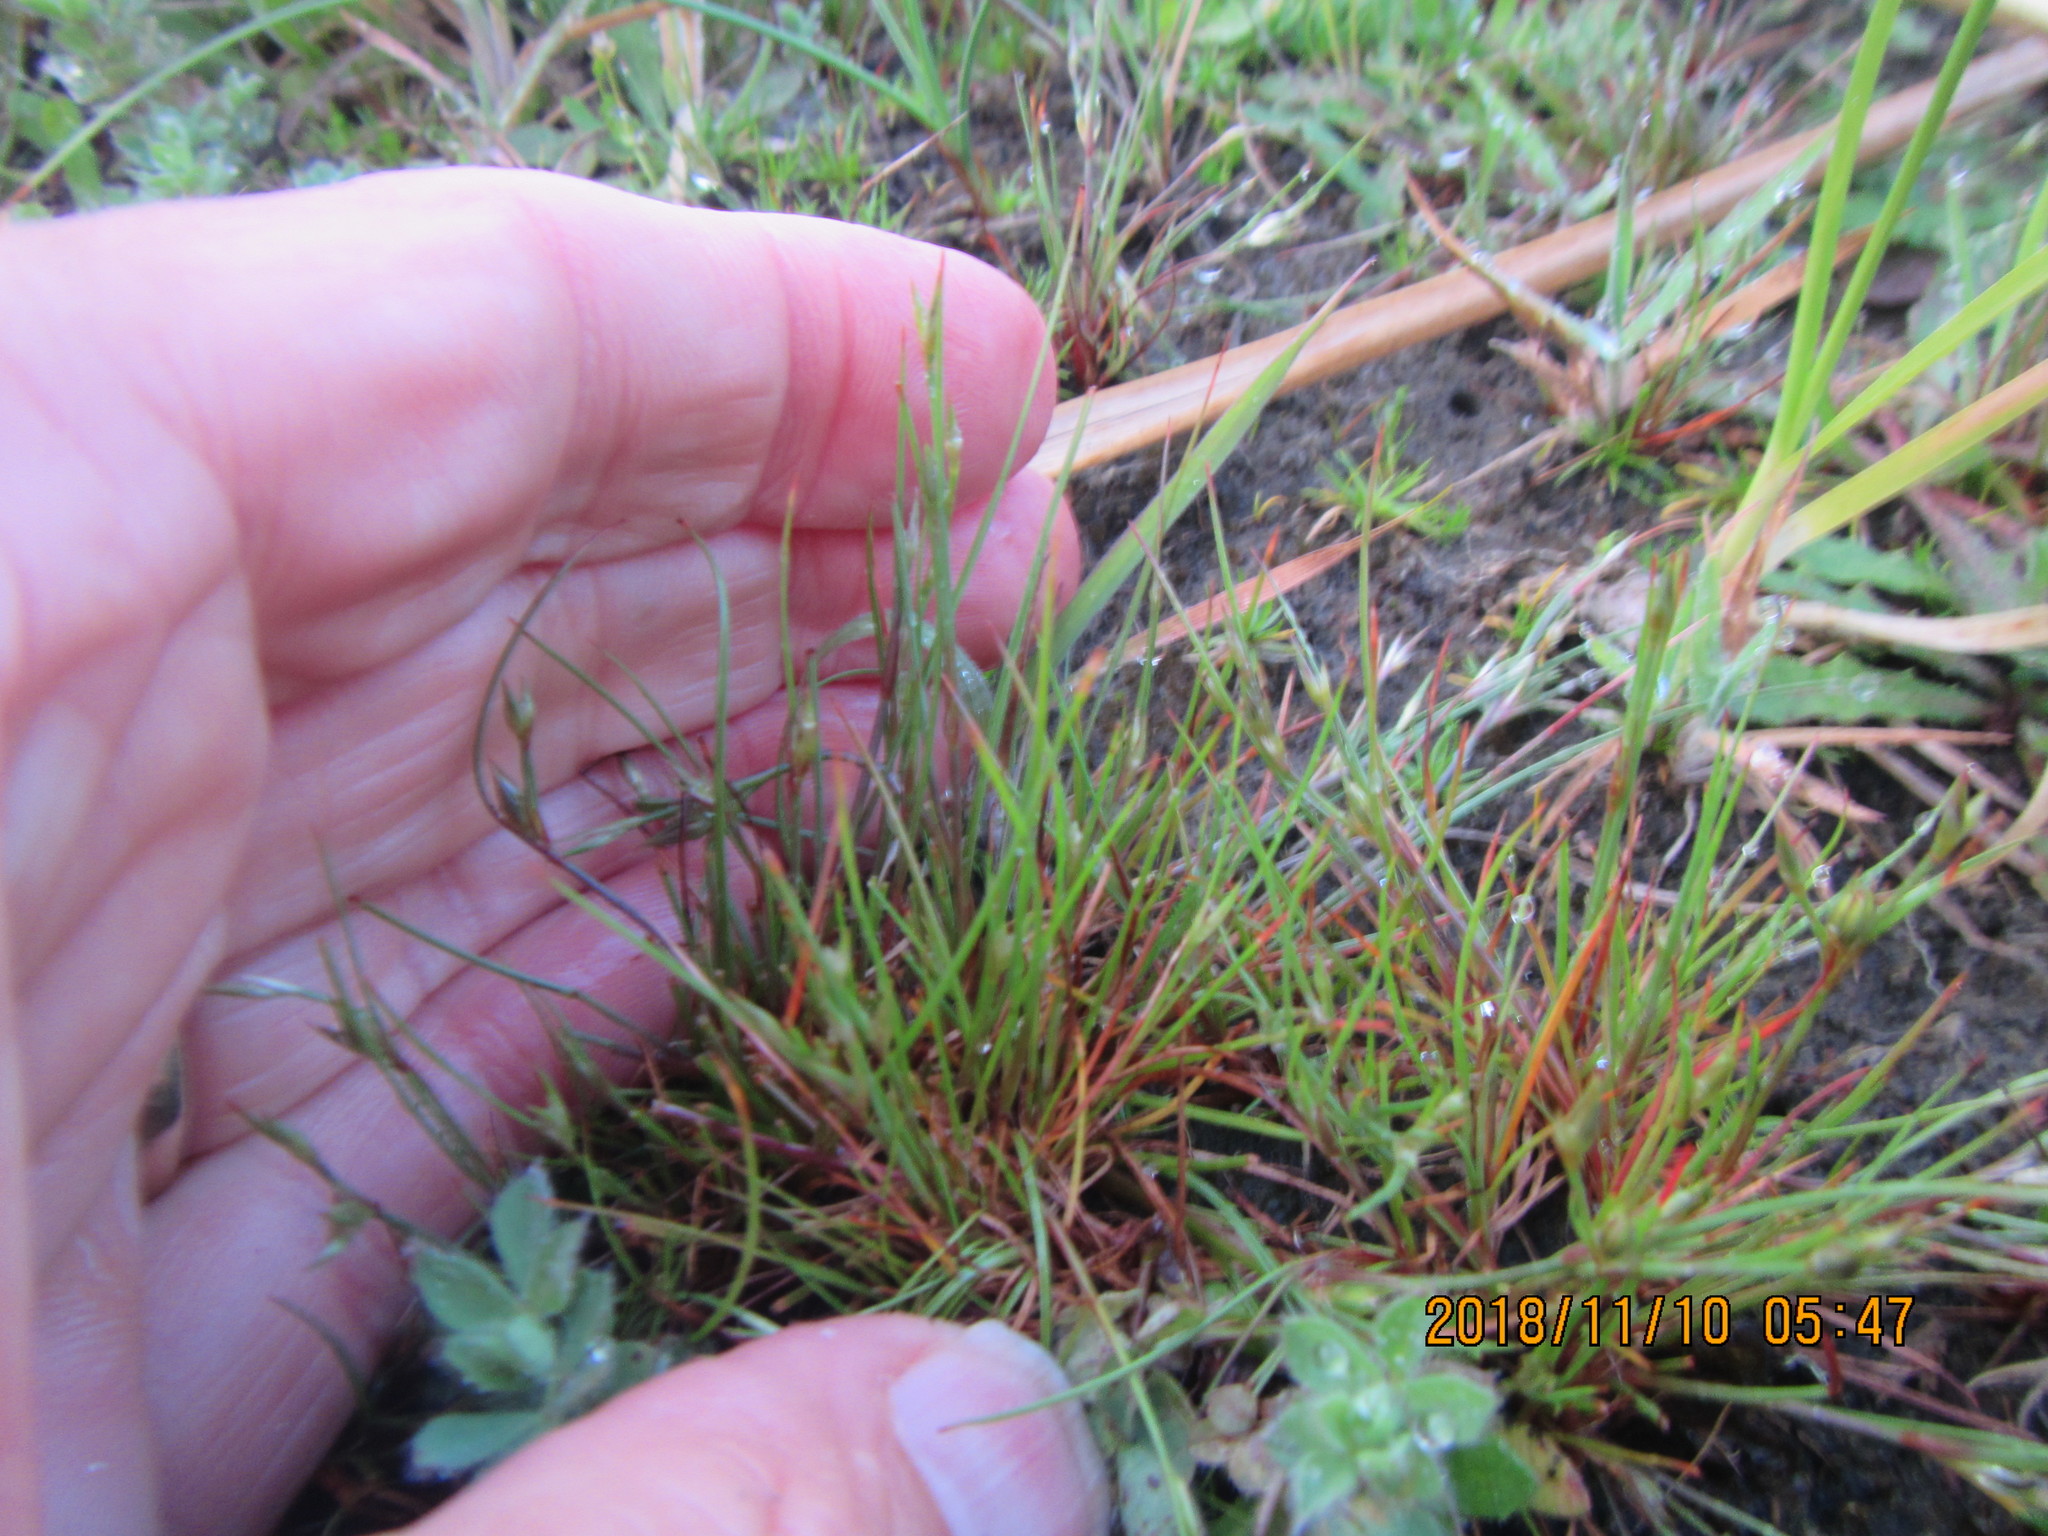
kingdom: Plantae
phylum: Tracheophyta
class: Liliopsida
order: Poales
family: Juncaceae
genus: Juncus
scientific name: Juncus bufonius
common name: Toad rush
